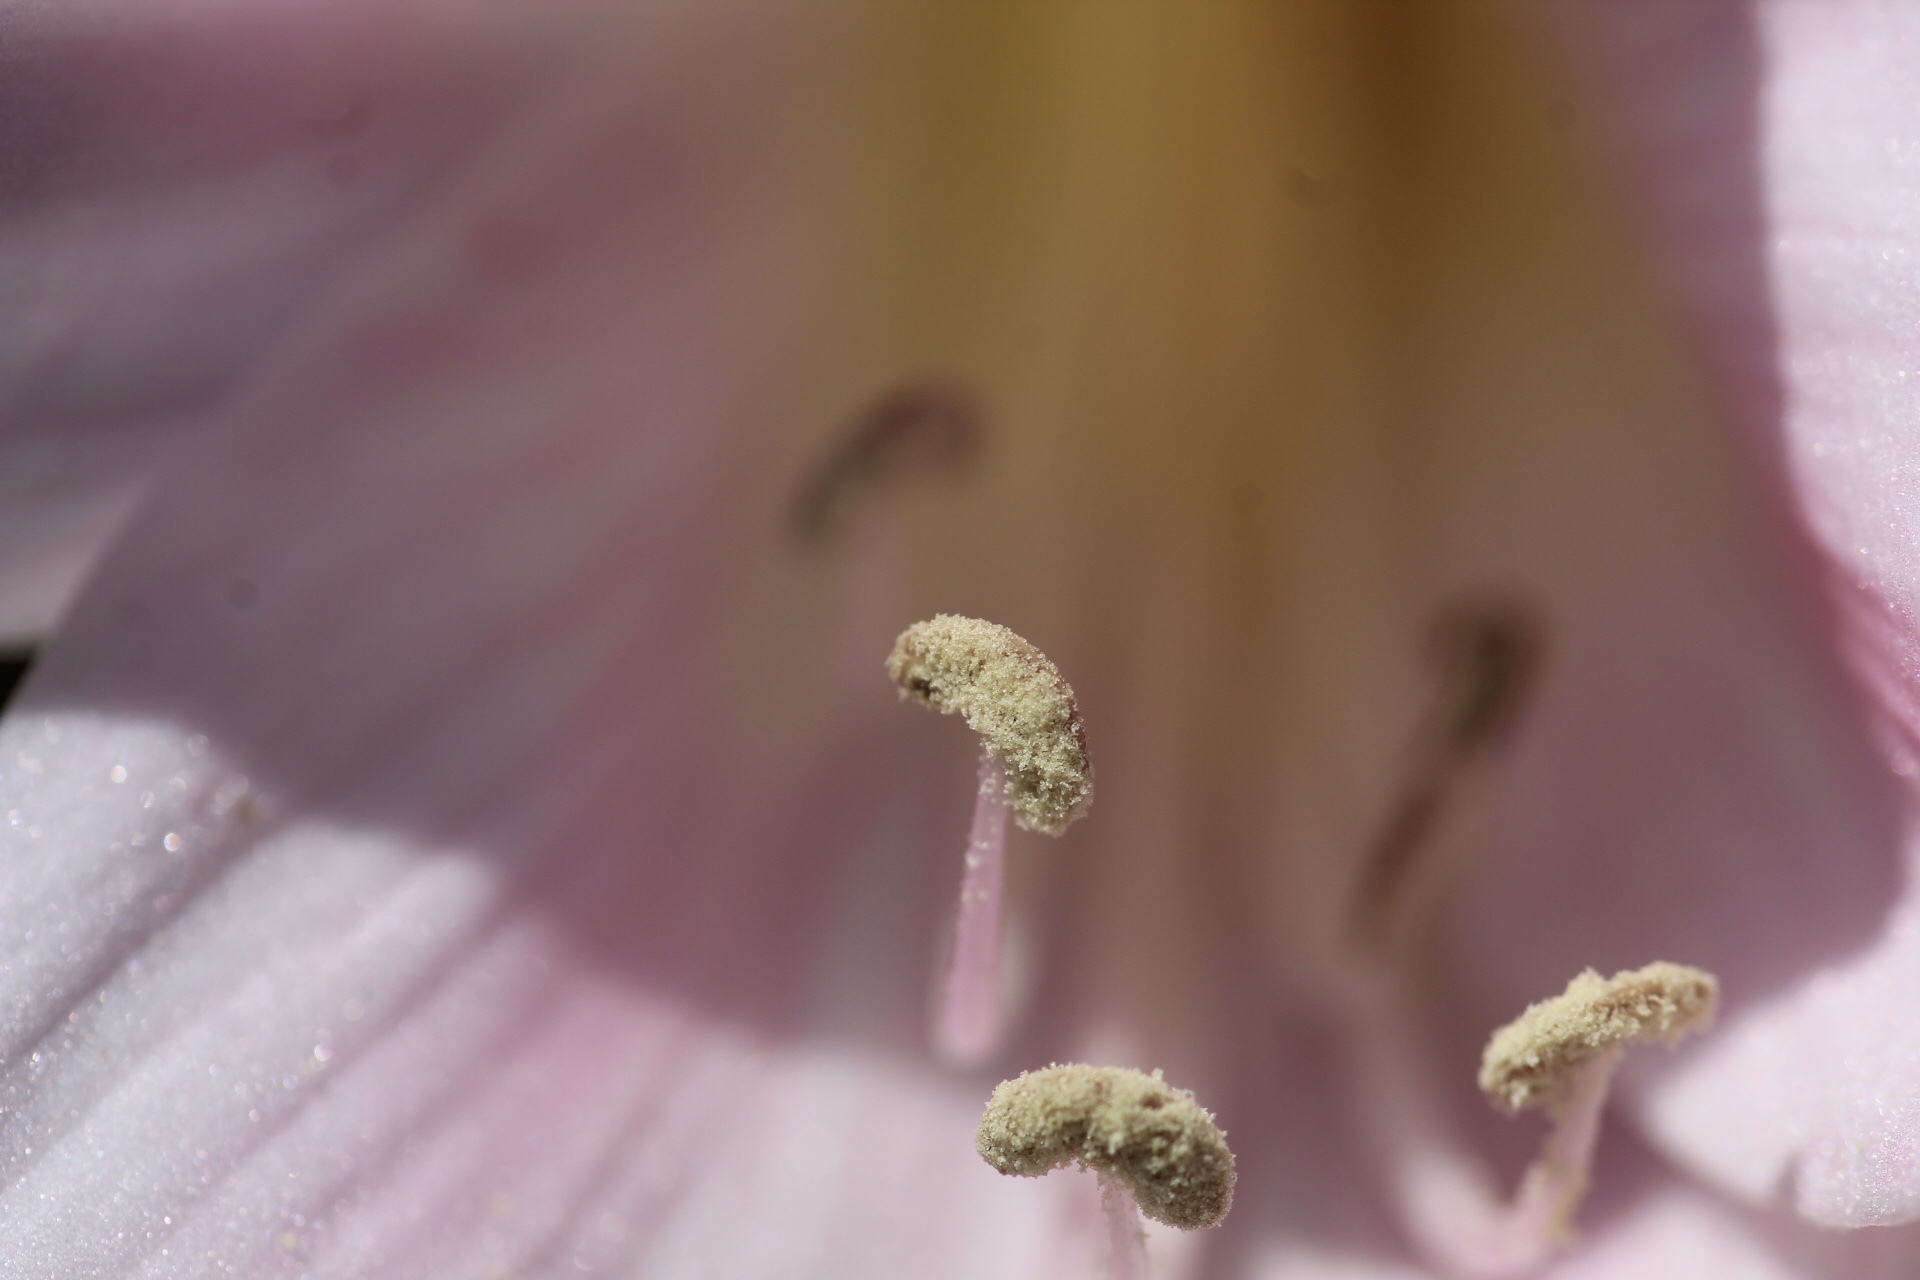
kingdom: Plantae
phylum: Tracheophyta
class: Liliopsida
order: Asparagales
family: Amaryllidaceae
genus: Amaryllis
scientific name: Amaryllis belladonna
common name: Jersey lily
